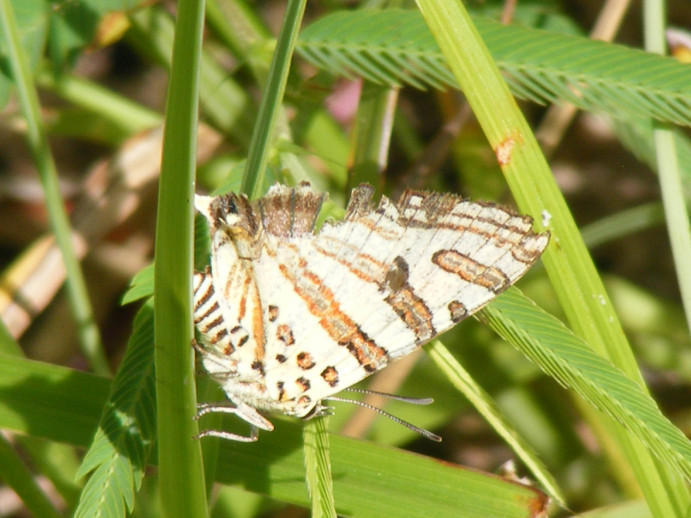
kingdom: Animalia
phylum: Arthropoda
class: Insecta
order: Lepidoptera
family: Lycaenidae
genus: Spindasis
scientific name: Spindasis natalensis
